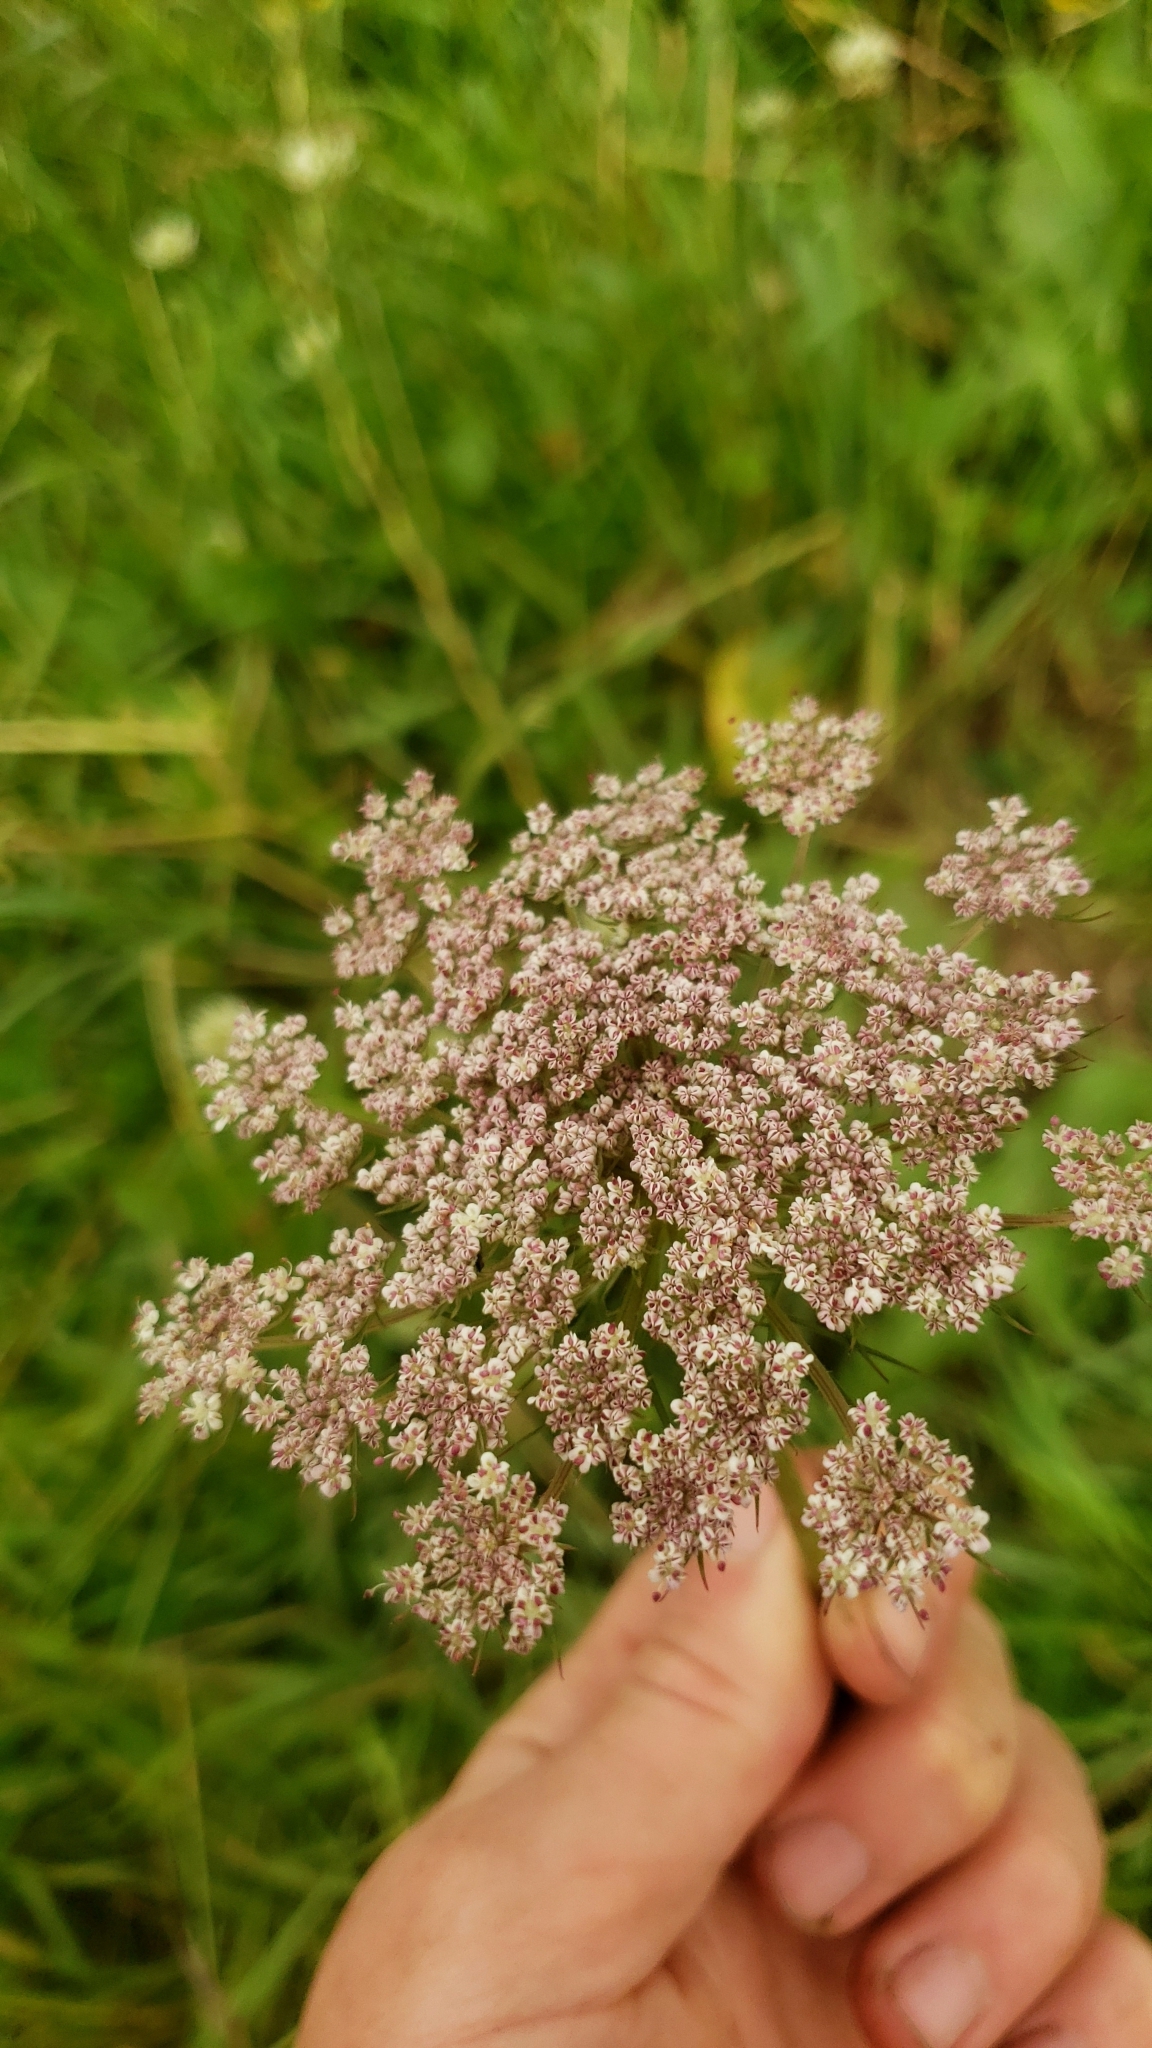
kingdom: Plantae
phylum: Tracheophyta
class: Magnoliopsida
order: Apiales
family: Apiaceae
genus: Daucus
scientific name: Daucus carota
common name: Wild carrot
